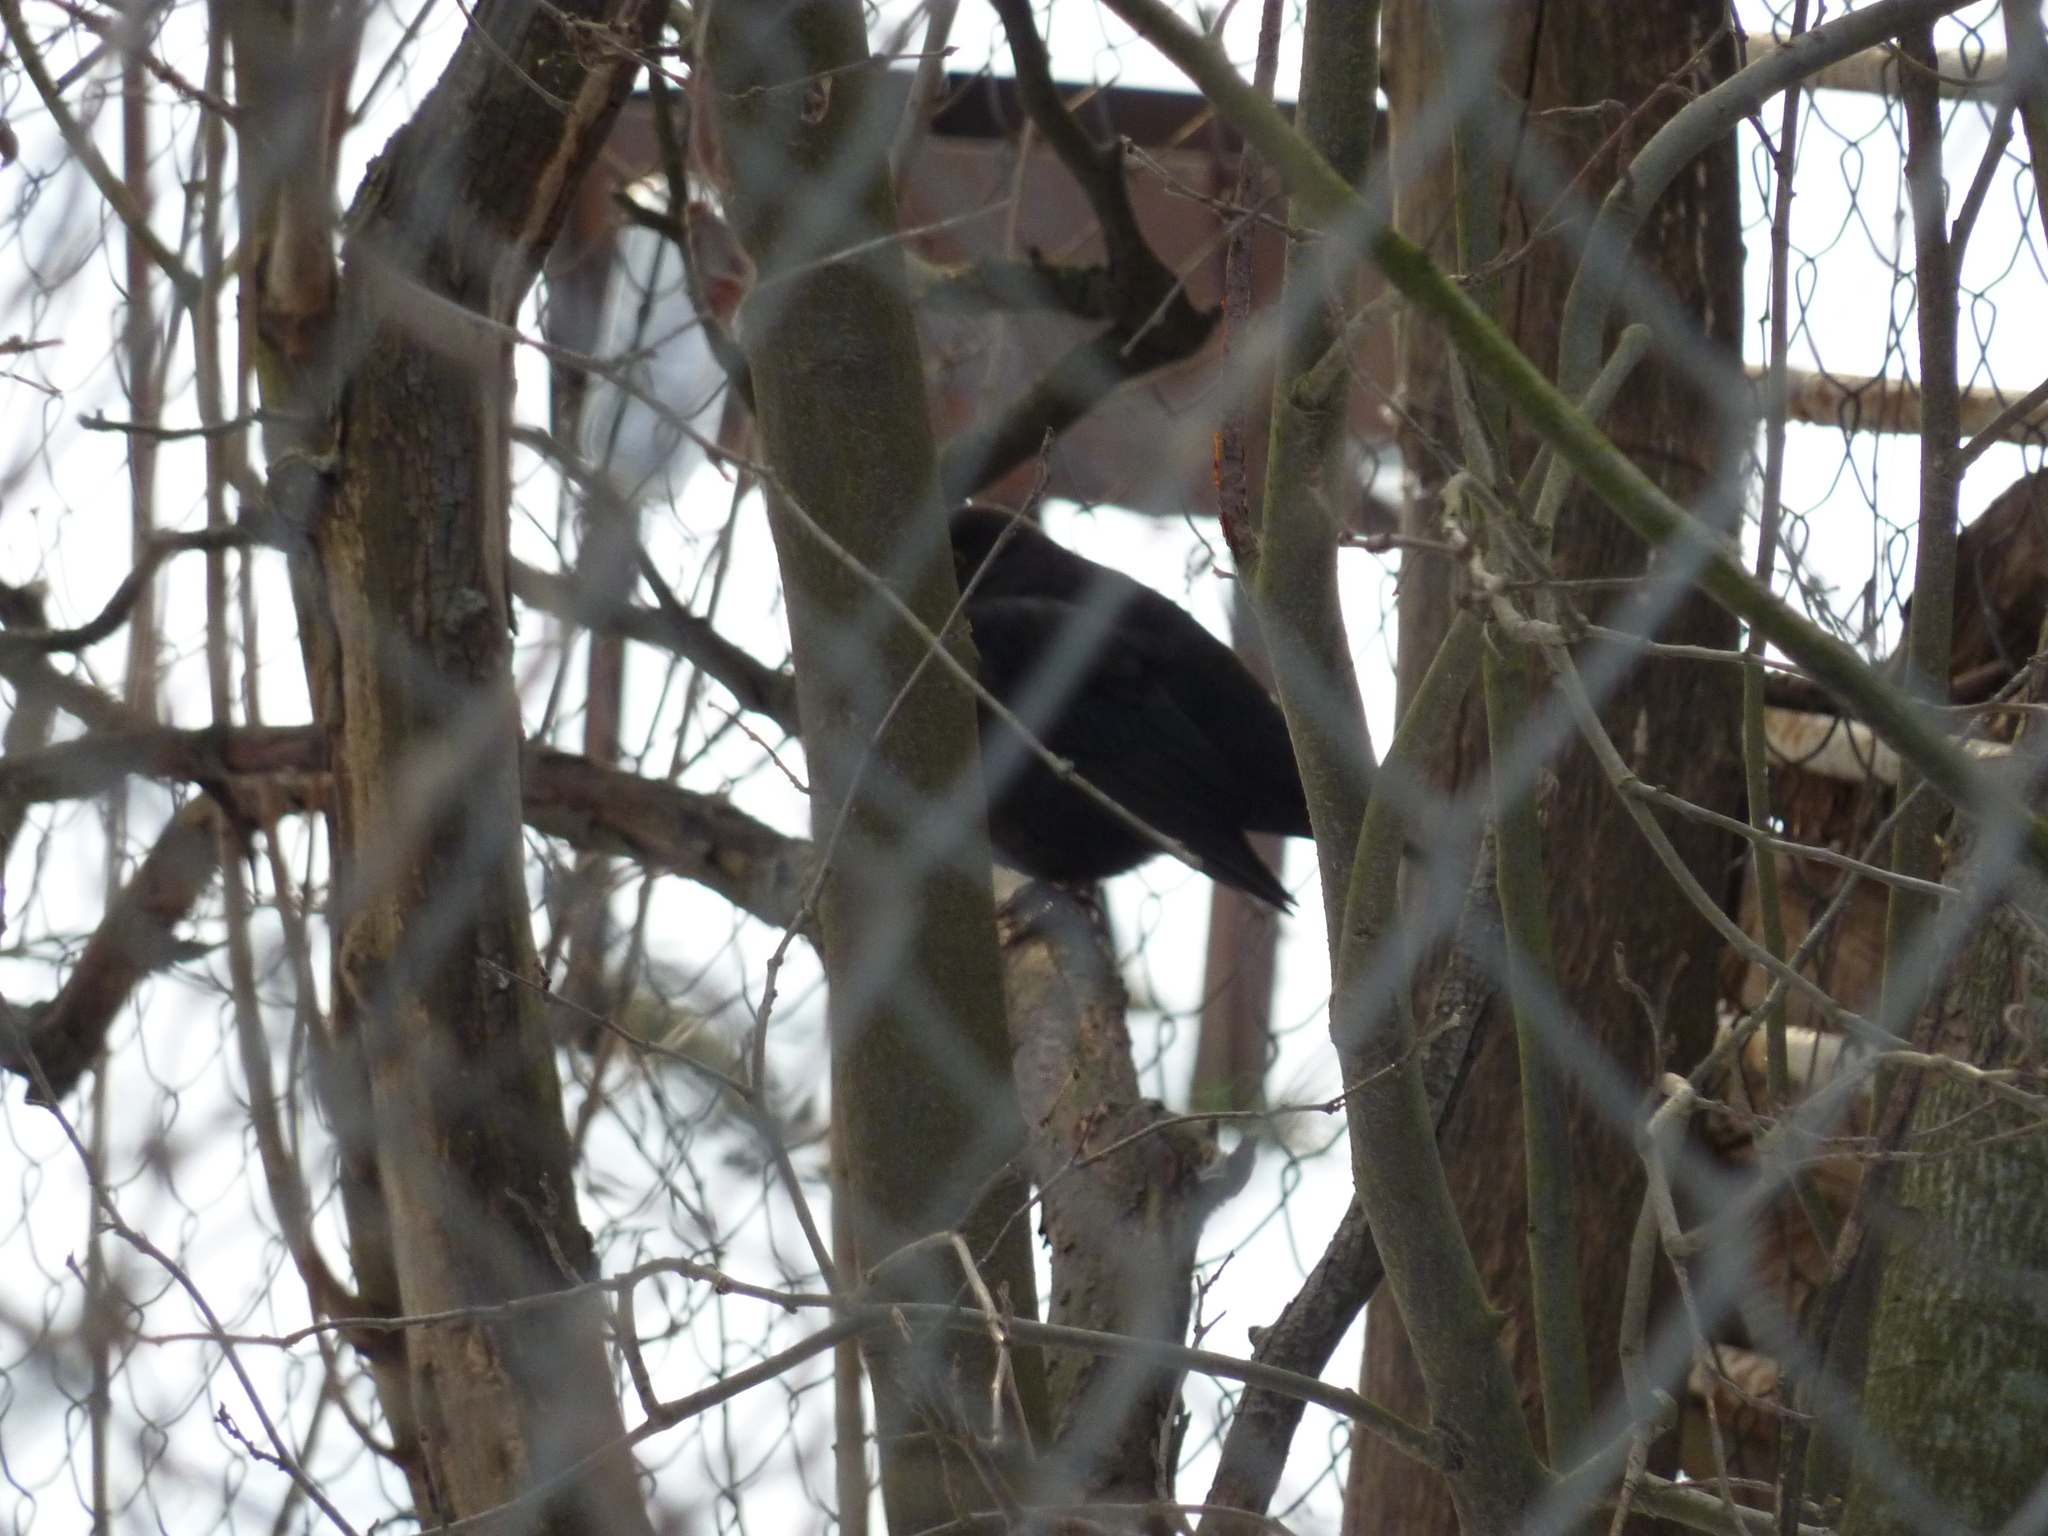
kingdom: Animalia
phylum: Chordata
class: Aves
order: Passeriformes
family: Turdidae
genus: Turdus
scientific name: Turdus merula
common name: Common blackbird
